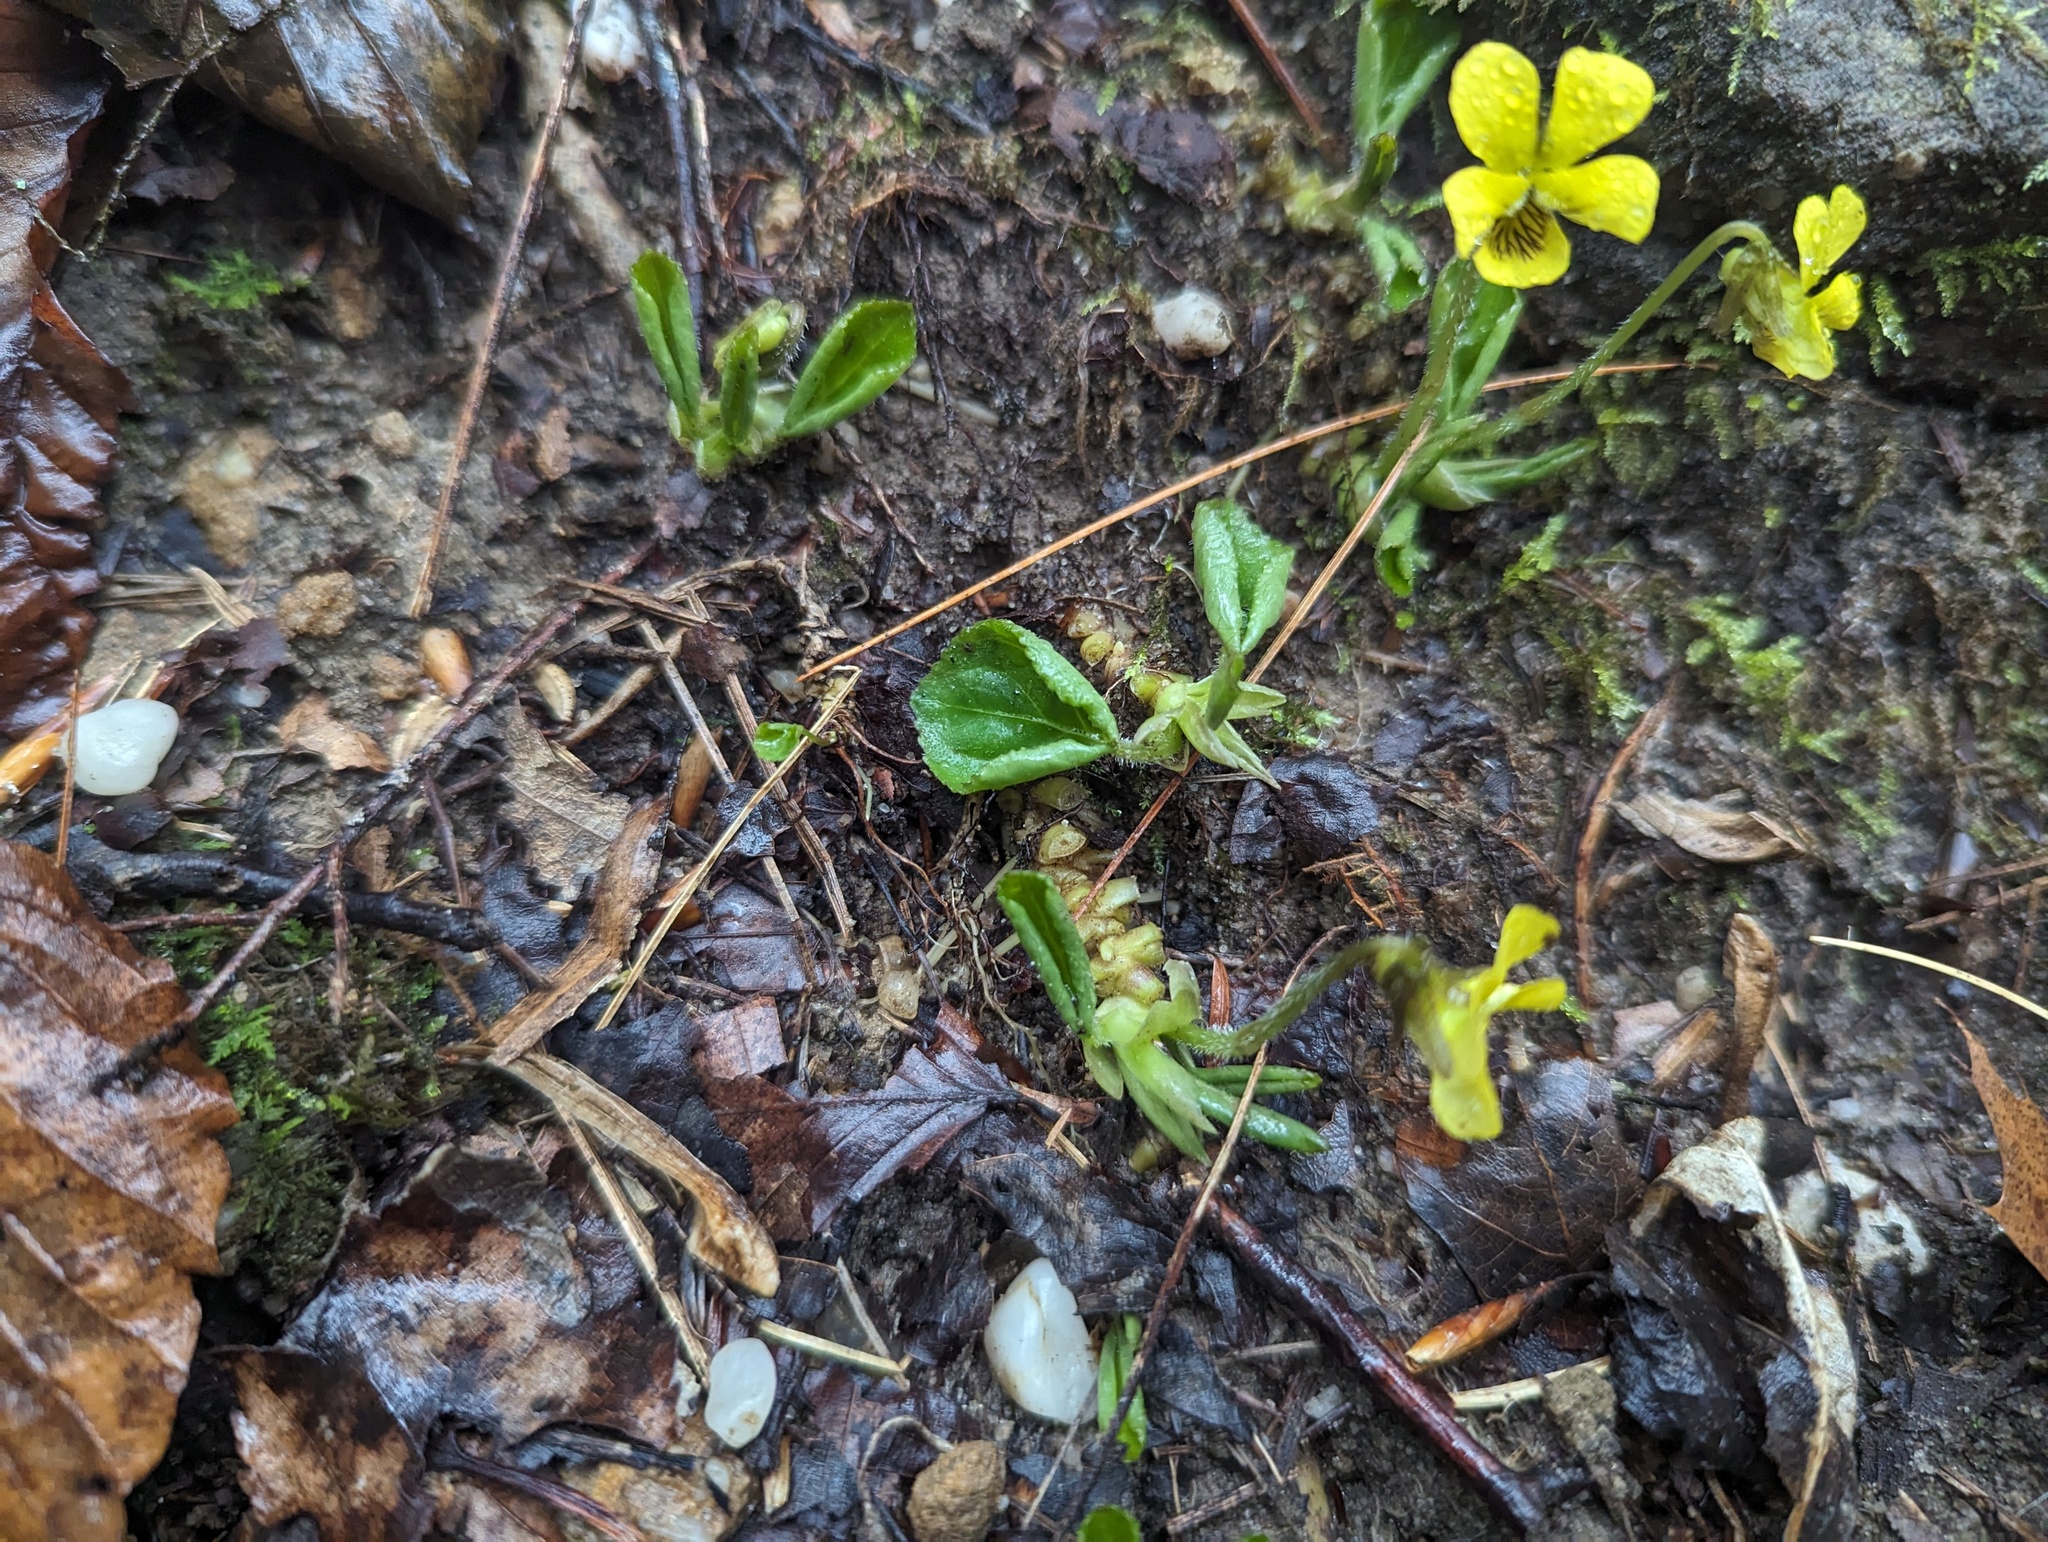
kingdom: Plantae
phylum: Tracheophyta
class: Magnoliopsida
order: Malpighiales
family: Violaceae
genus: Viola
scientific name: Viola rotundifolia
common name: Early yellow violet
